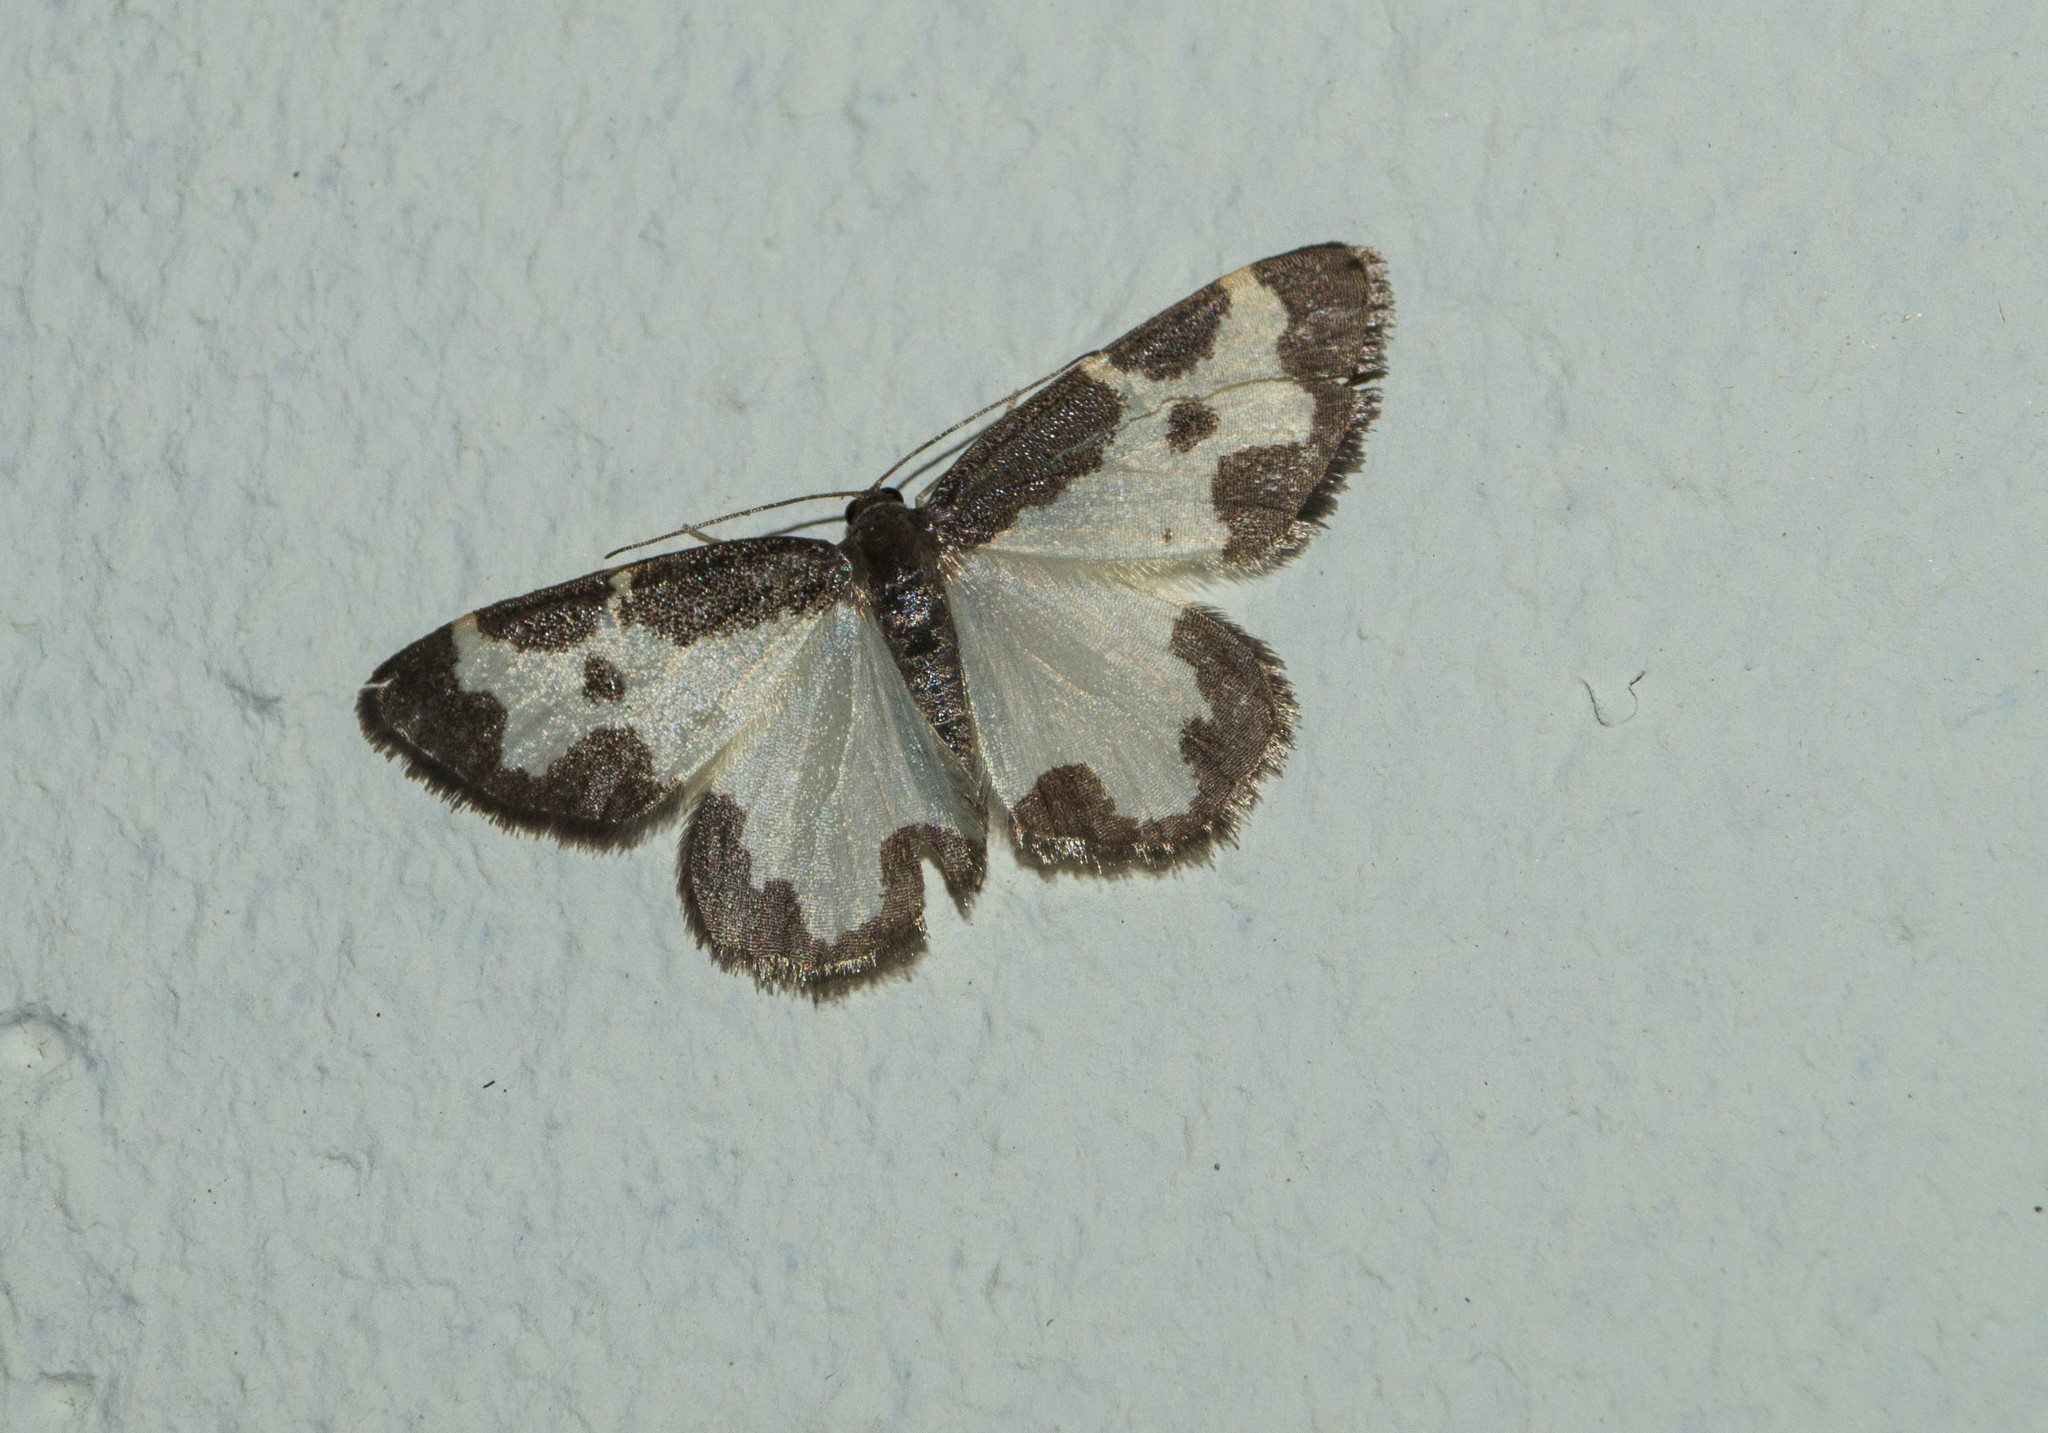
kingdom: Animalia
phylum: Arthropoda
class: Insecta
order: Lepidoptera
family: Geometridae
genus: Lomaspilis
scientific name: Lomaspilis marginata
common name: Clouded border
